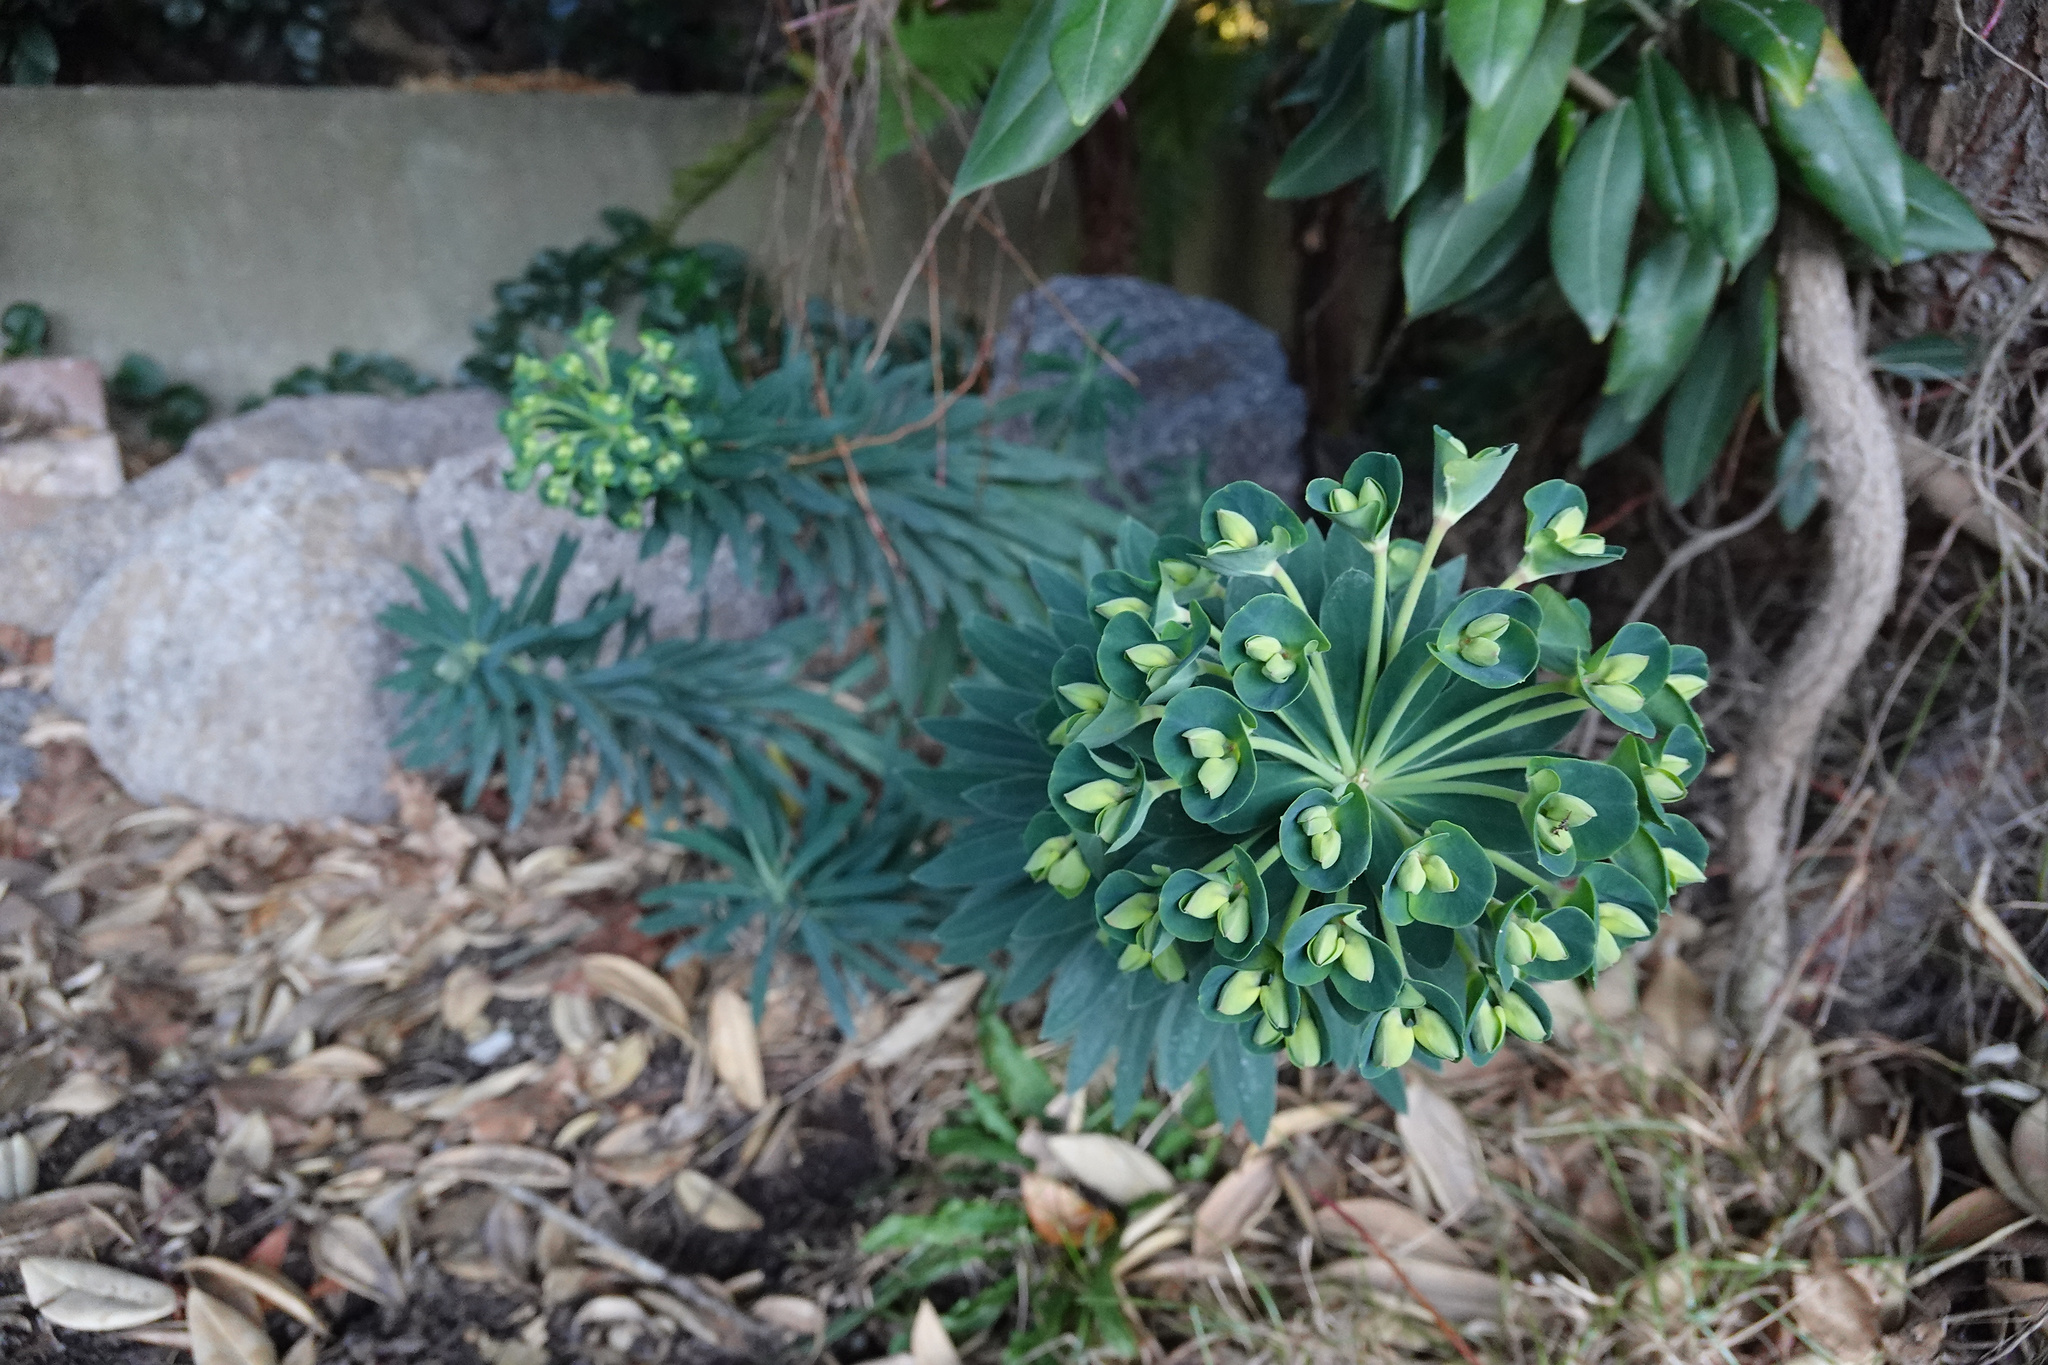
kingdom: Plantae
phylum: Tracheophyta
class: Magnoliopsida
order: Malpighiales
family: Euphorbiaceae
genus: Euphorbia
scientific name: Euphorbia characias
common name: Mediterranean spurge
